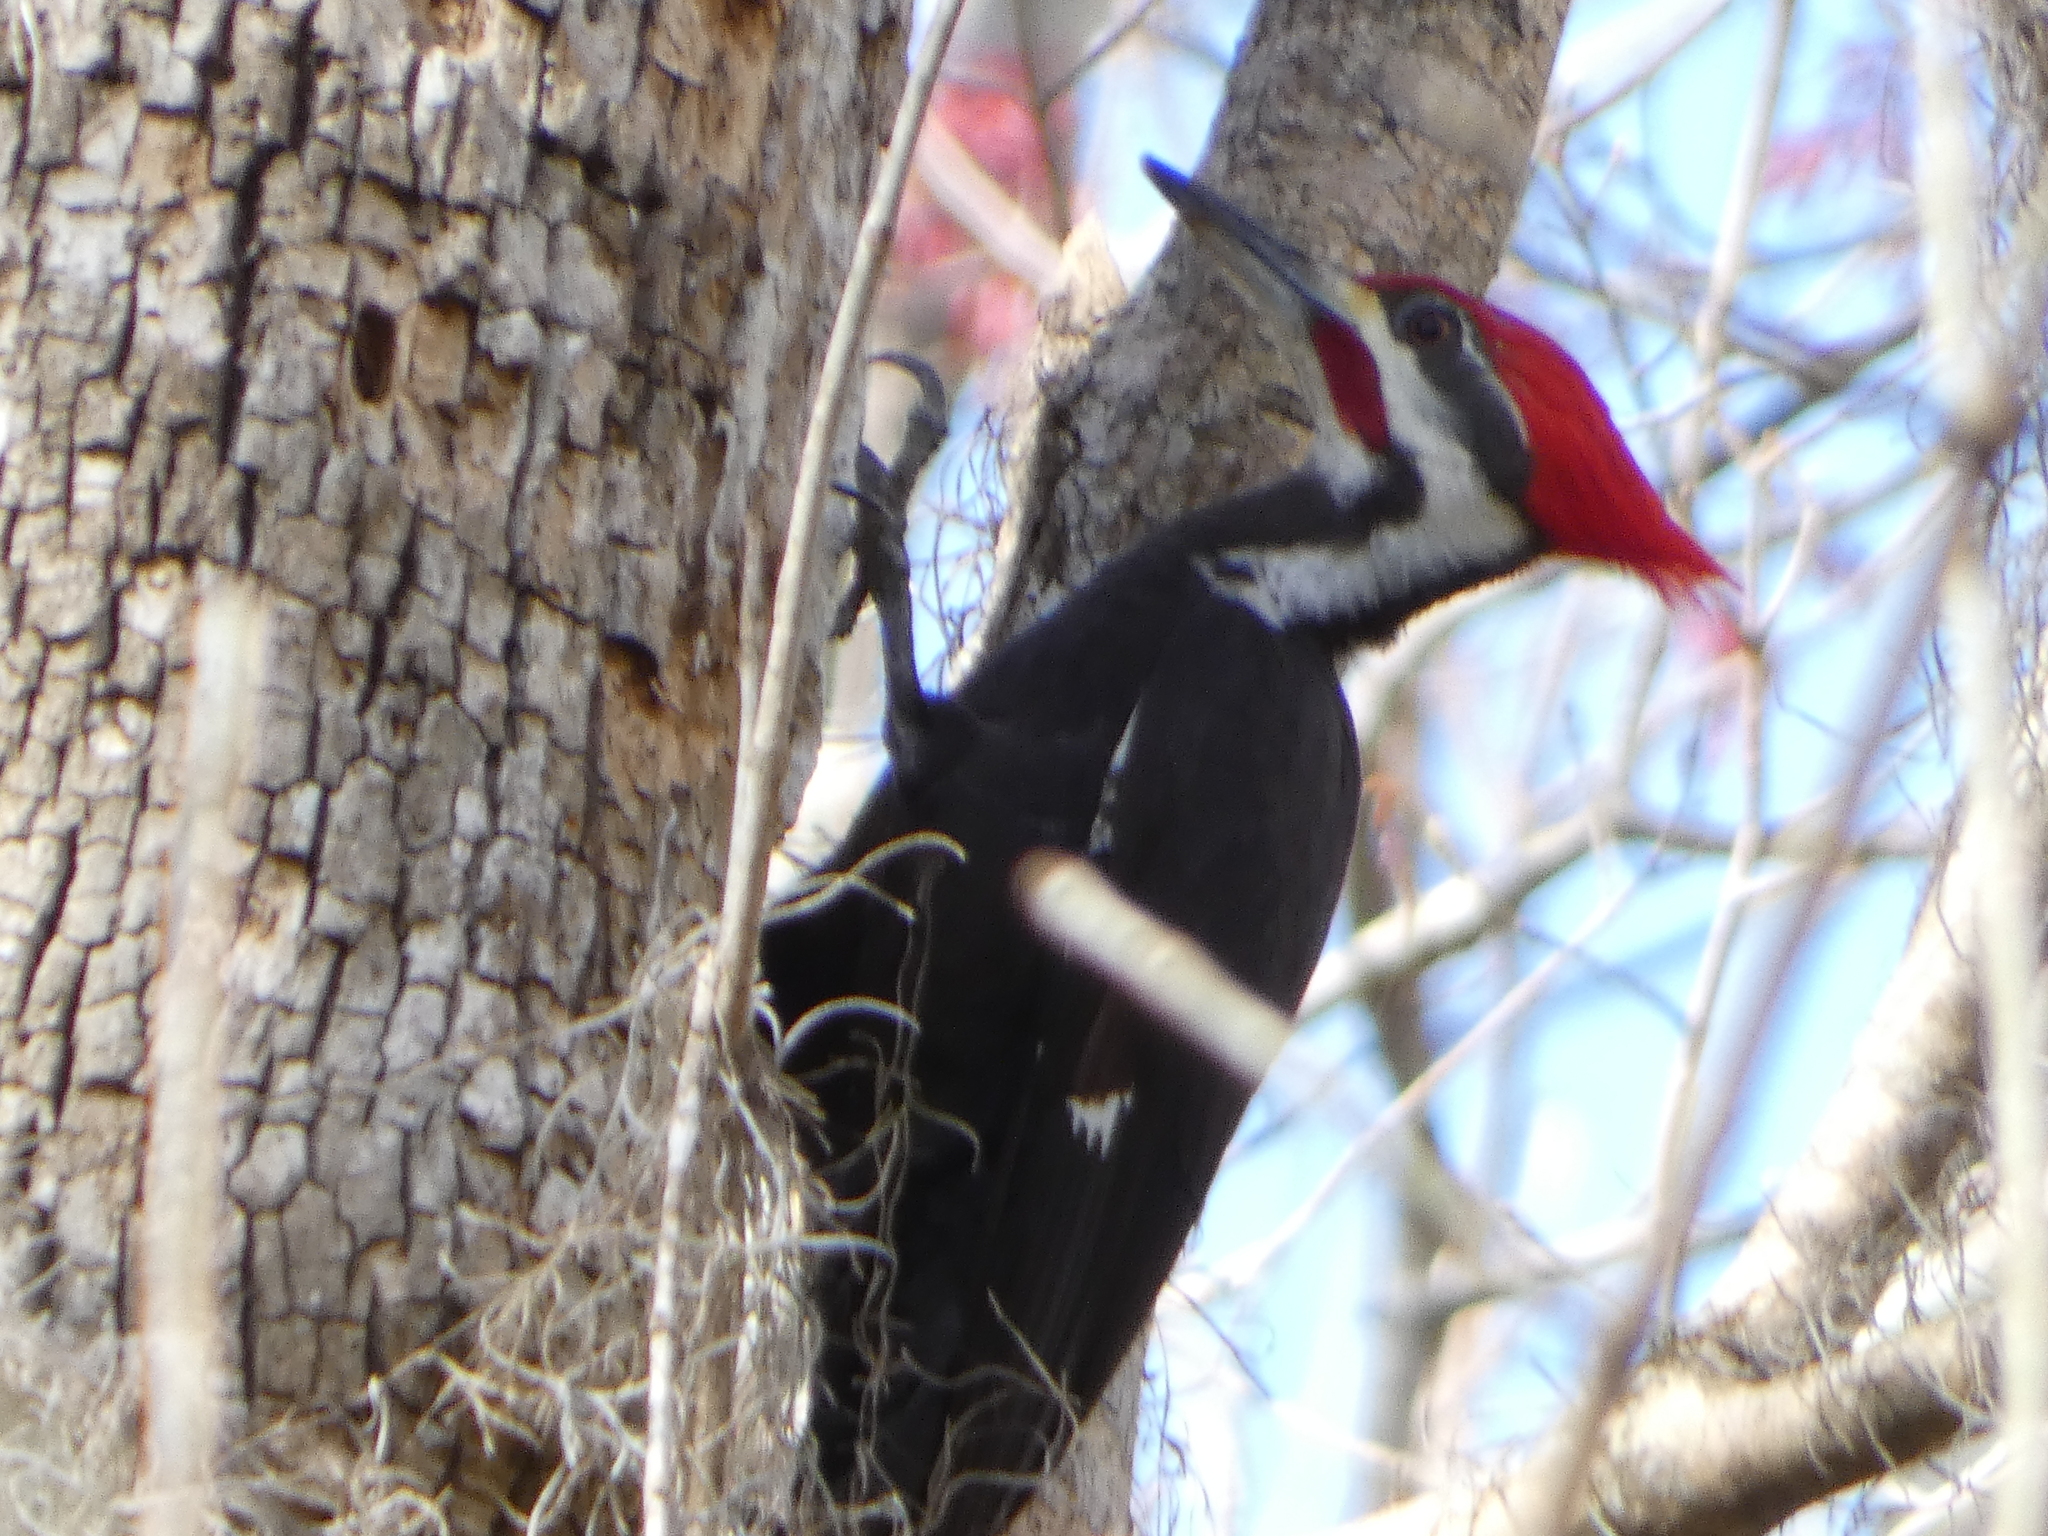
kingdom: Animalia
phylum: Chordata
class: Aves
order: Piciformes
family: Picidae
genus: Dryocopus
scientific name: Dryocopus pileatus
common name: Pileated woodpecker
